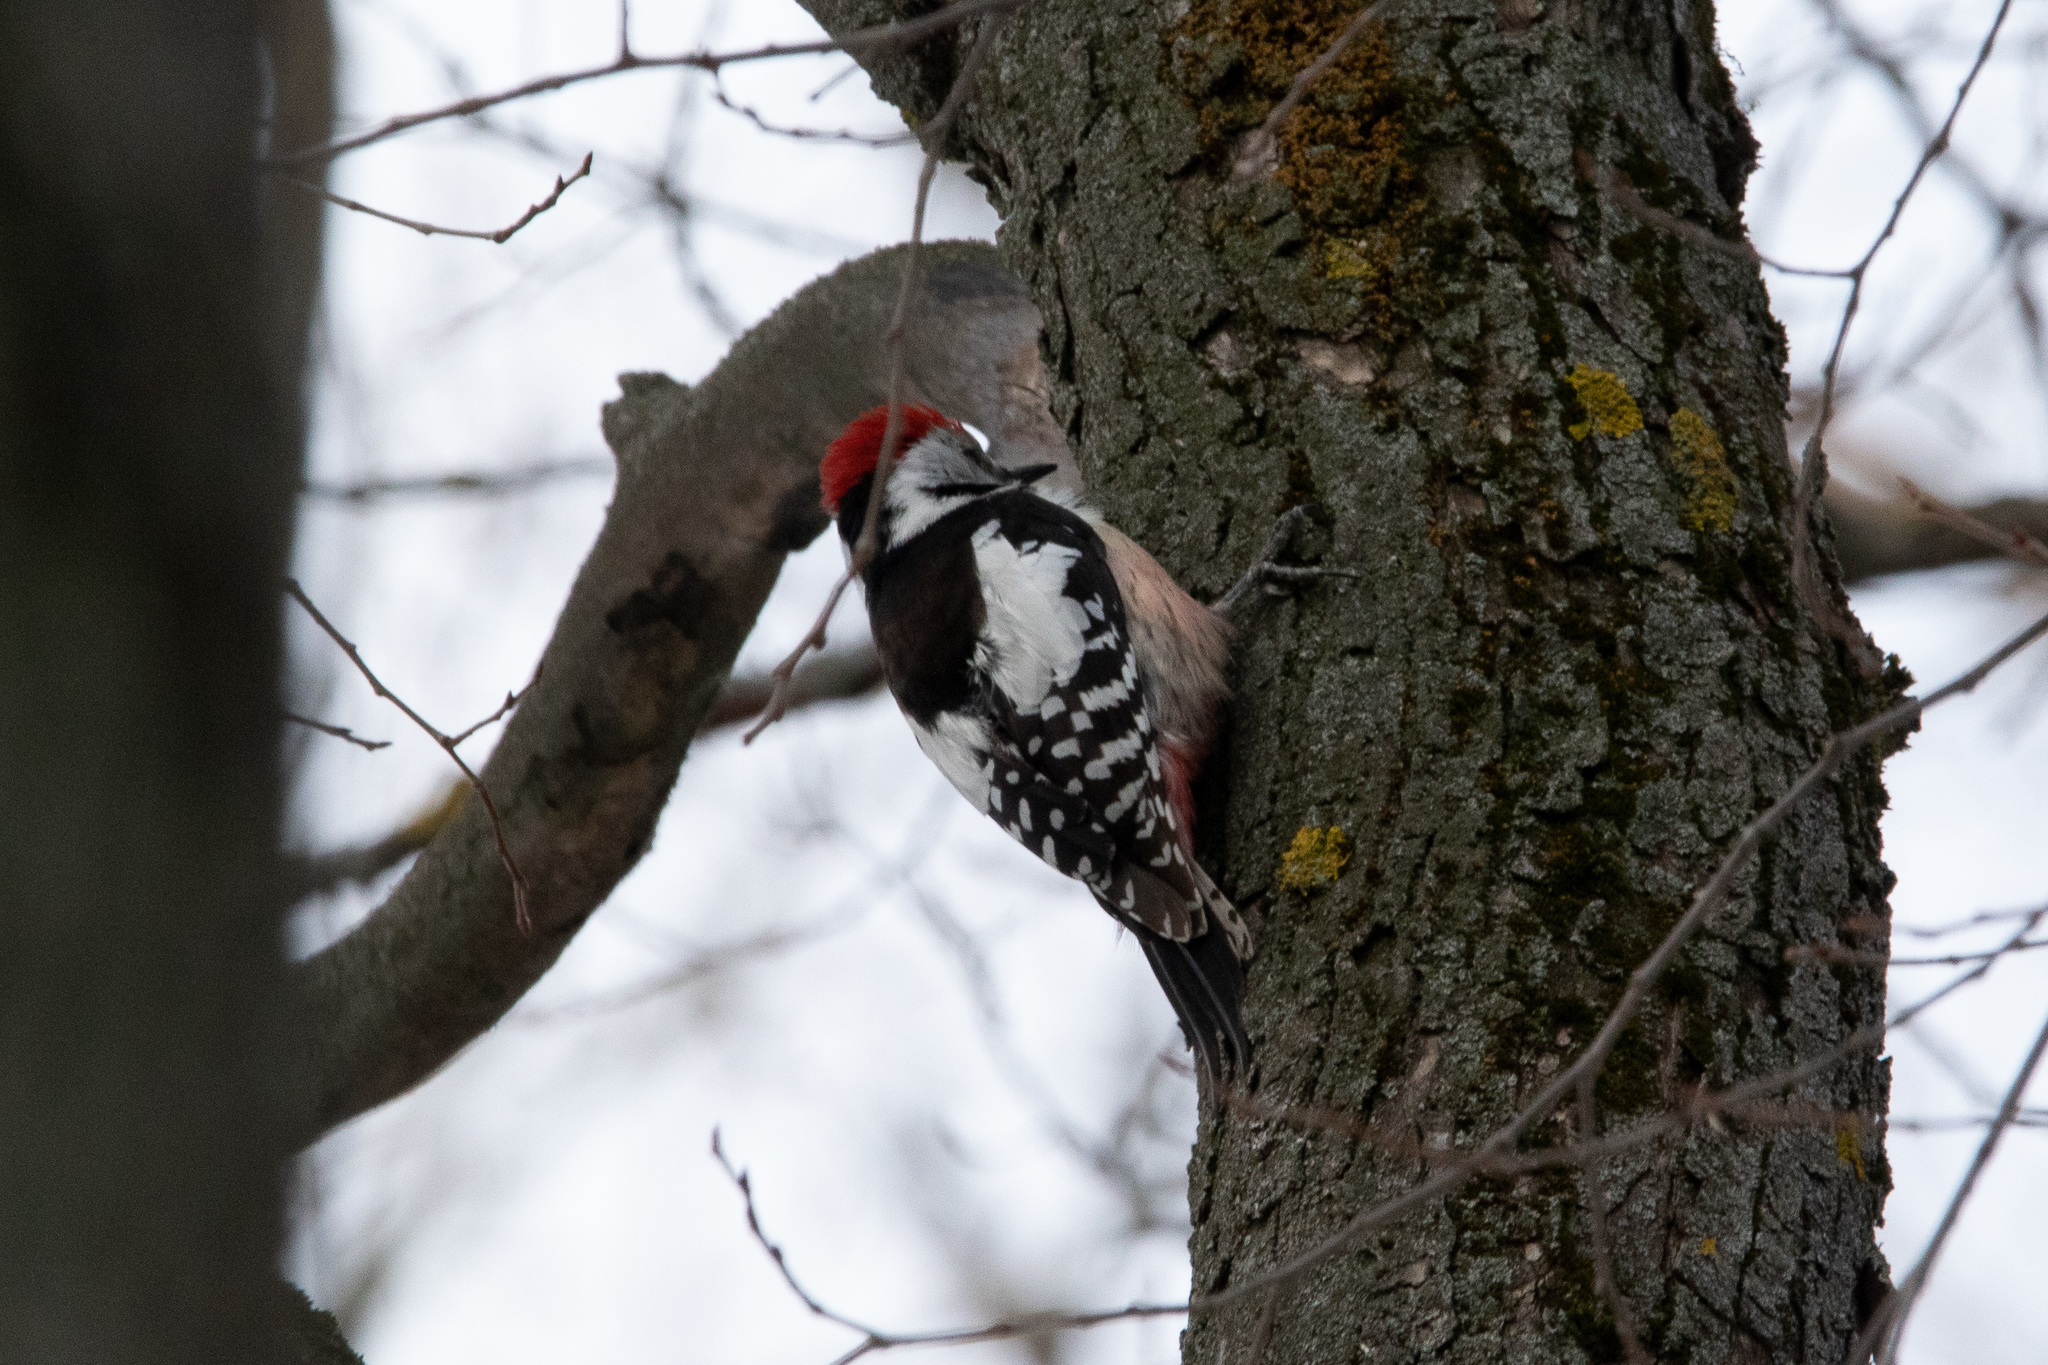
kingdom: Animalia
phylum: Chordata
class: Aves
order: Piciformes
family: Picidae
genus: Dendrocoptes
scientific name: Dendrocoptes medius
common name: Middle spotted woodpecker
